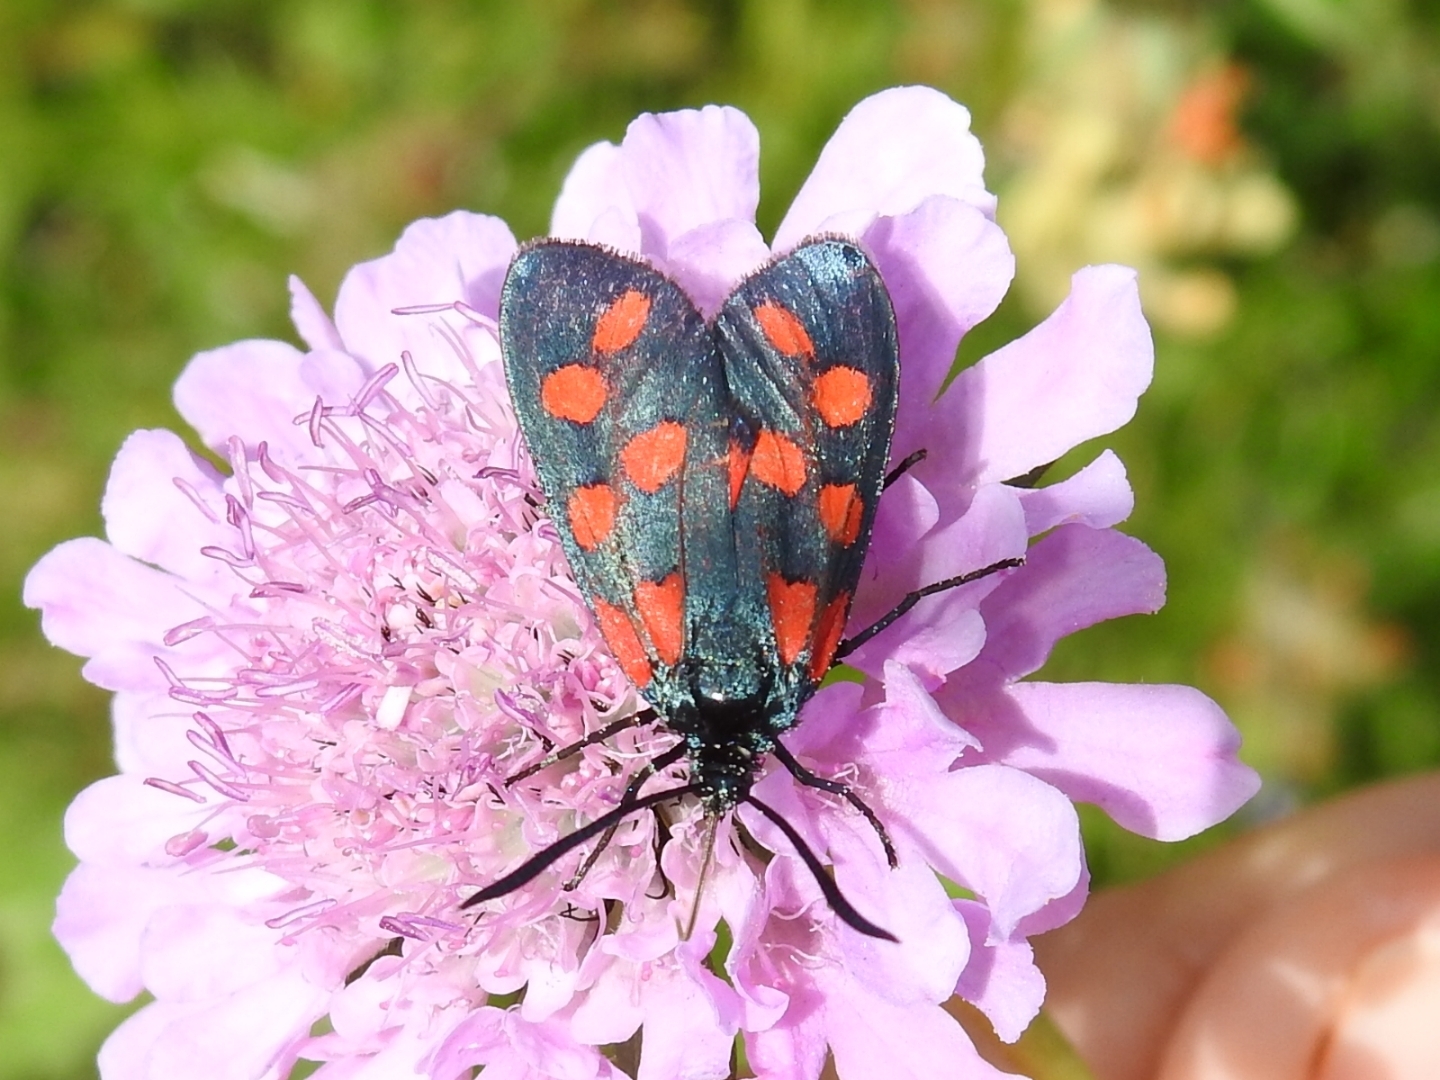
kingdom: Animalia
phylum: Arthropoda
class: Insecta
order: Lepidoptera
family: Zygaenidae
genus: Zygaena
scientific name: Zygaena transalpina
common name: Southern six spot burnet
